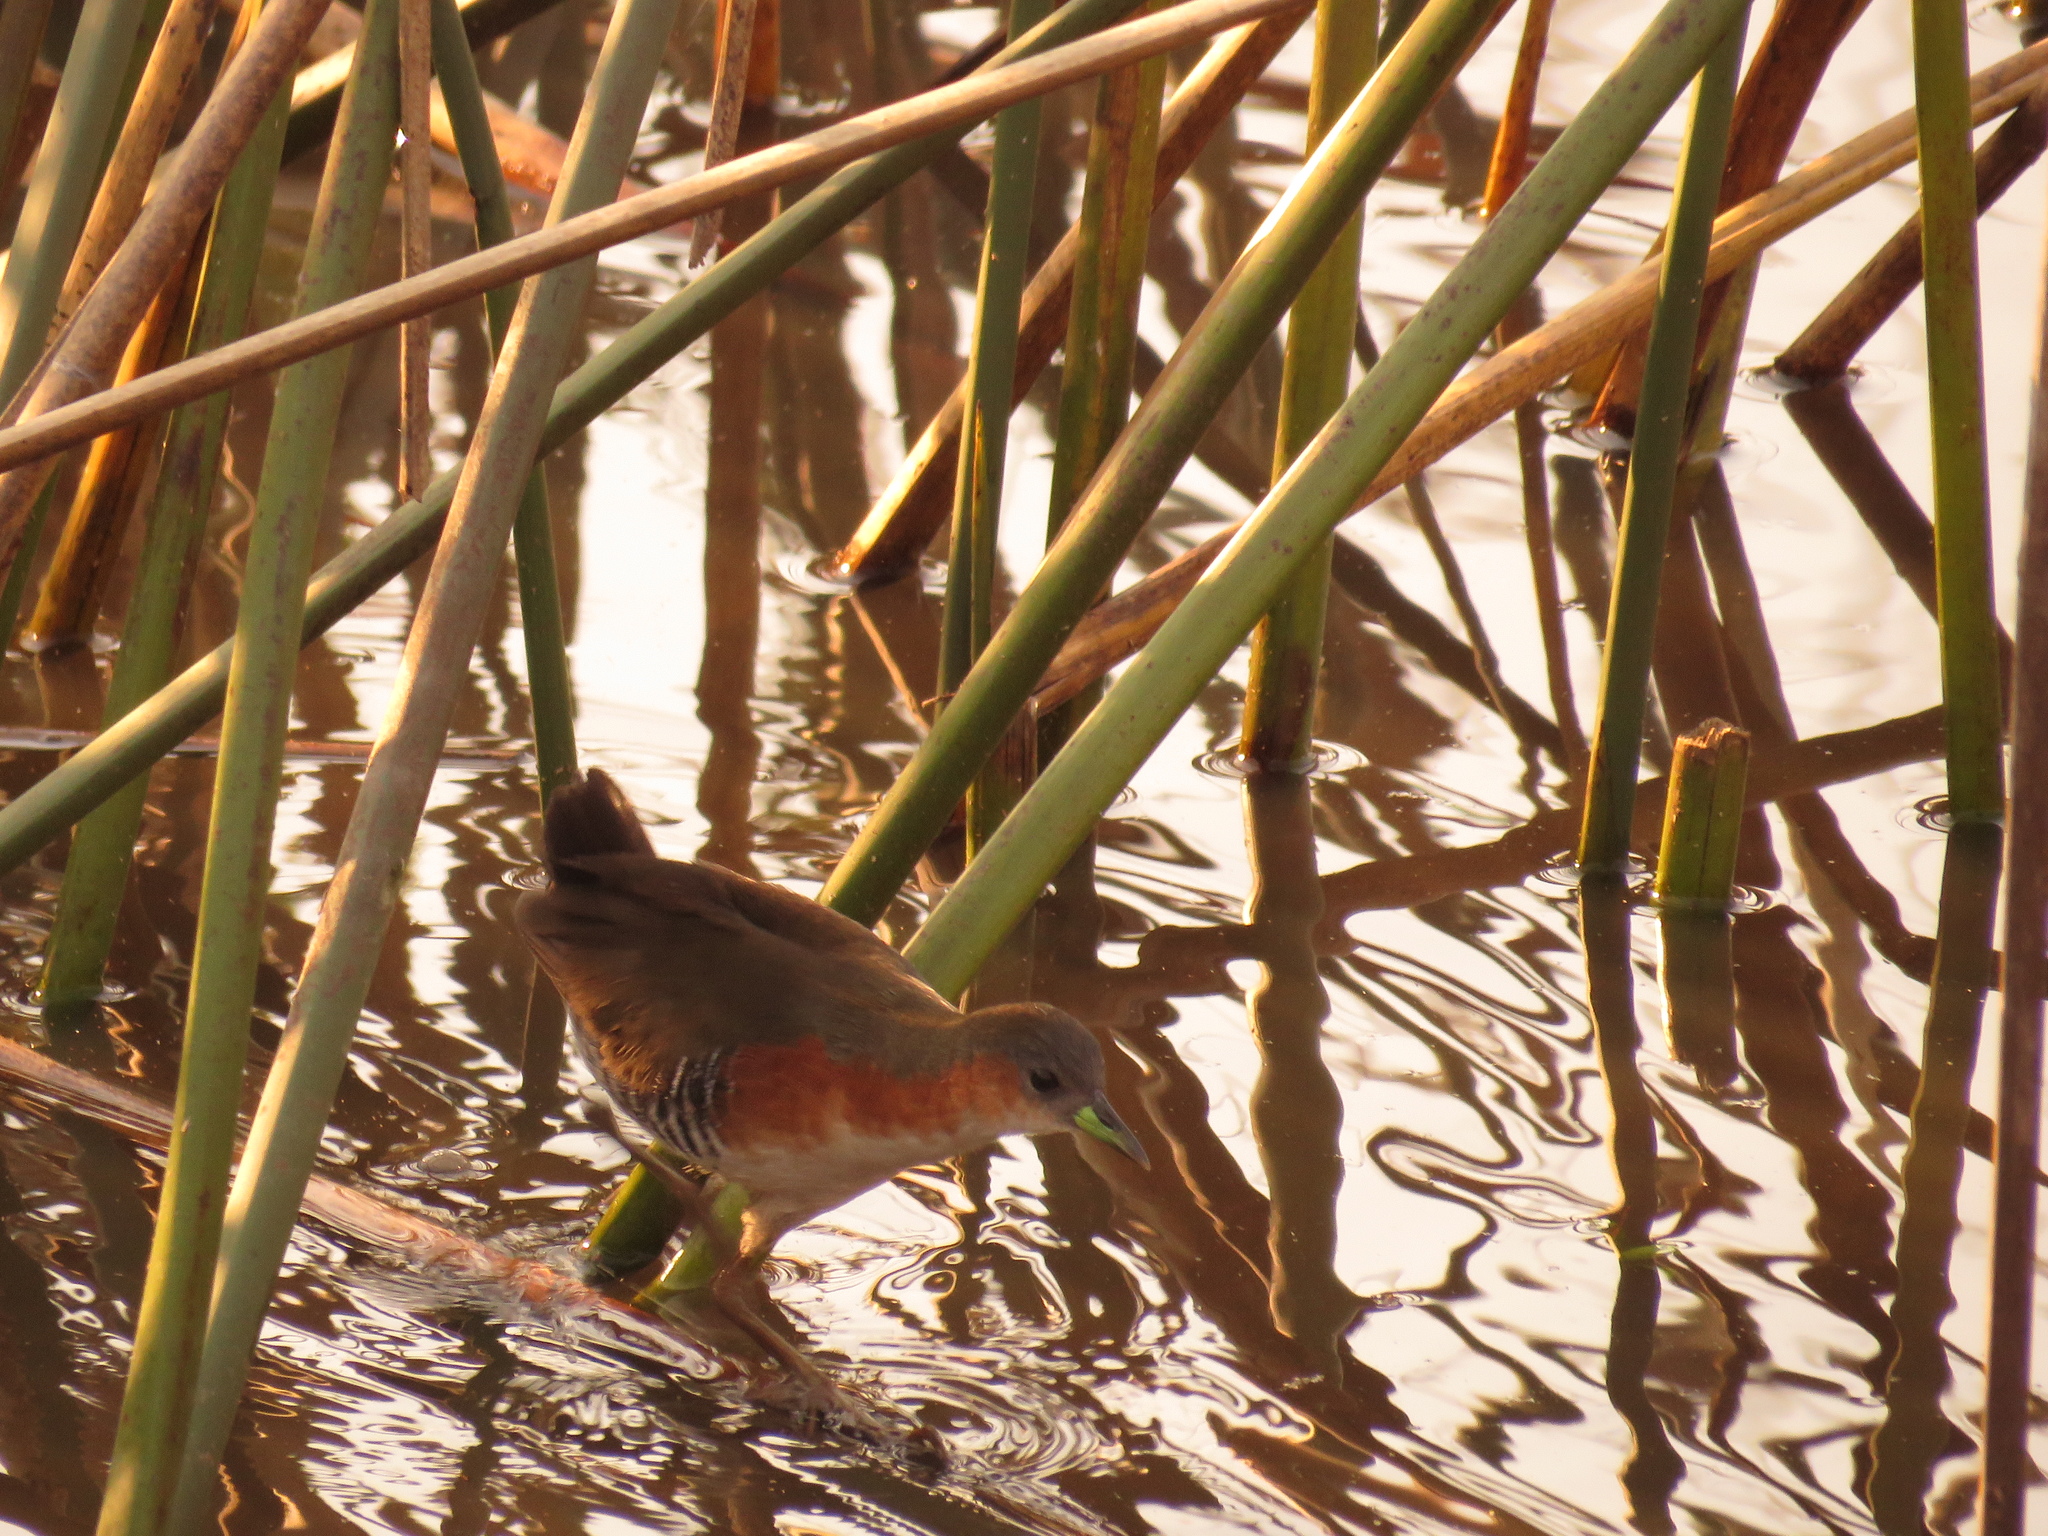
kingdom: Animalia
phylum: Chordata
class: Aves
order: Gruiformes
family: Rallidae
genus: Laterallus
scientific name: Laterallus melanophaius
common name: Rufous-sided crake
